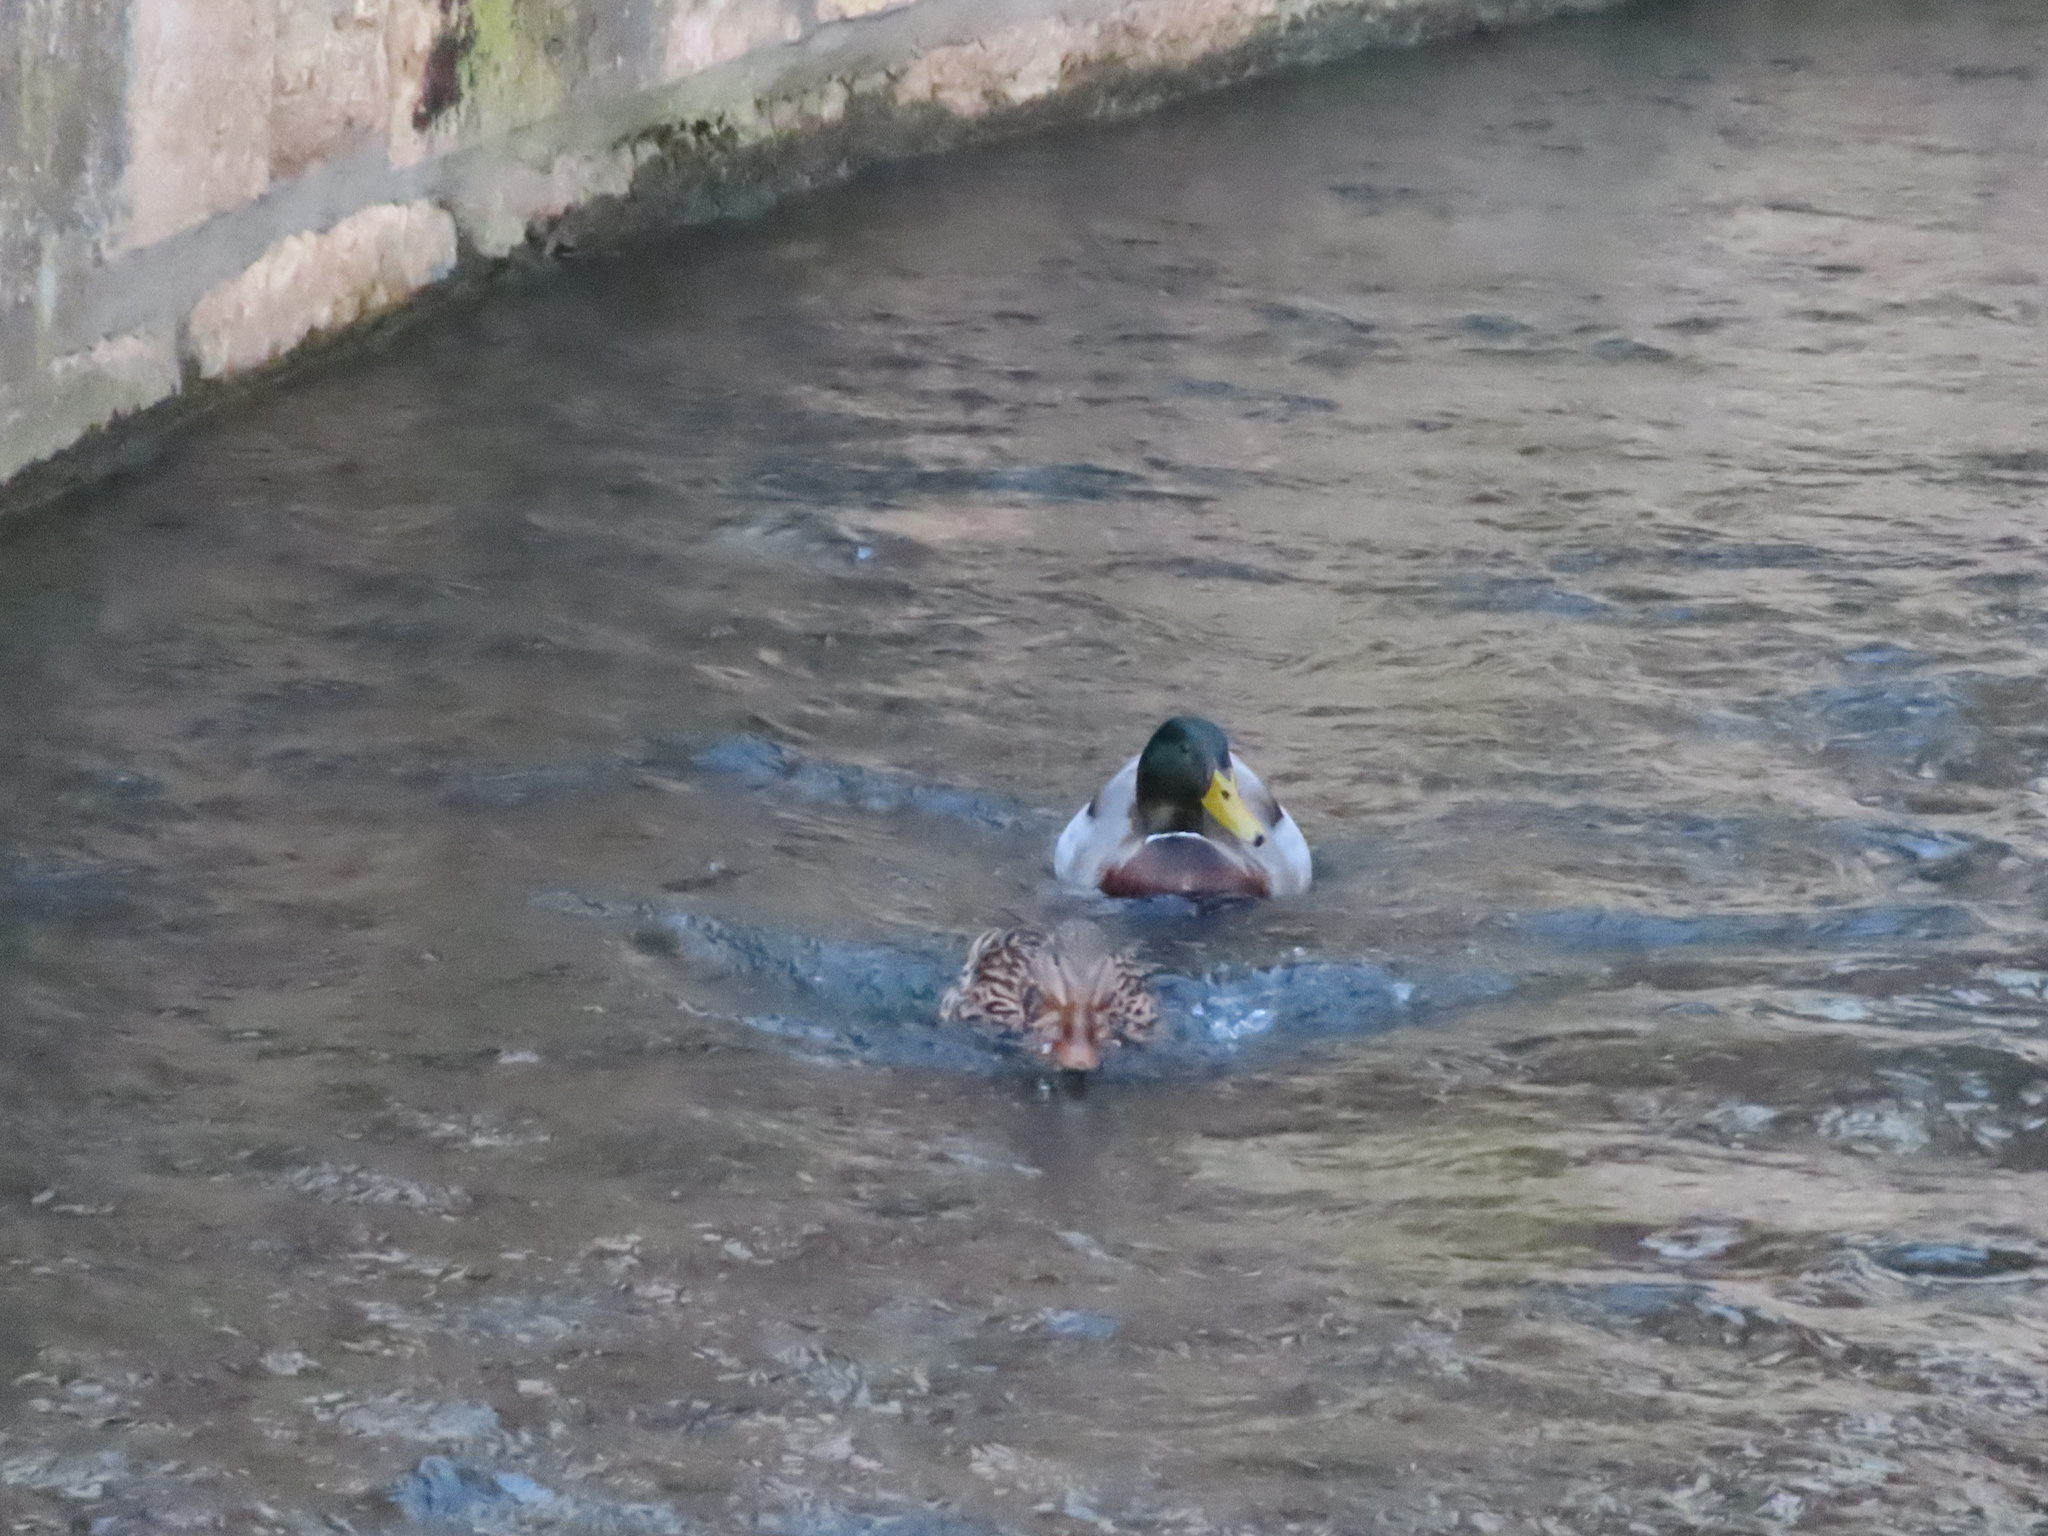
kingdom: Animalia
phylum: Chordata
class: Aves
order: Anseriformes
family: Anatidae
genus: Anas
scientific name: Anas platyrhynchos
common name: Mallard
